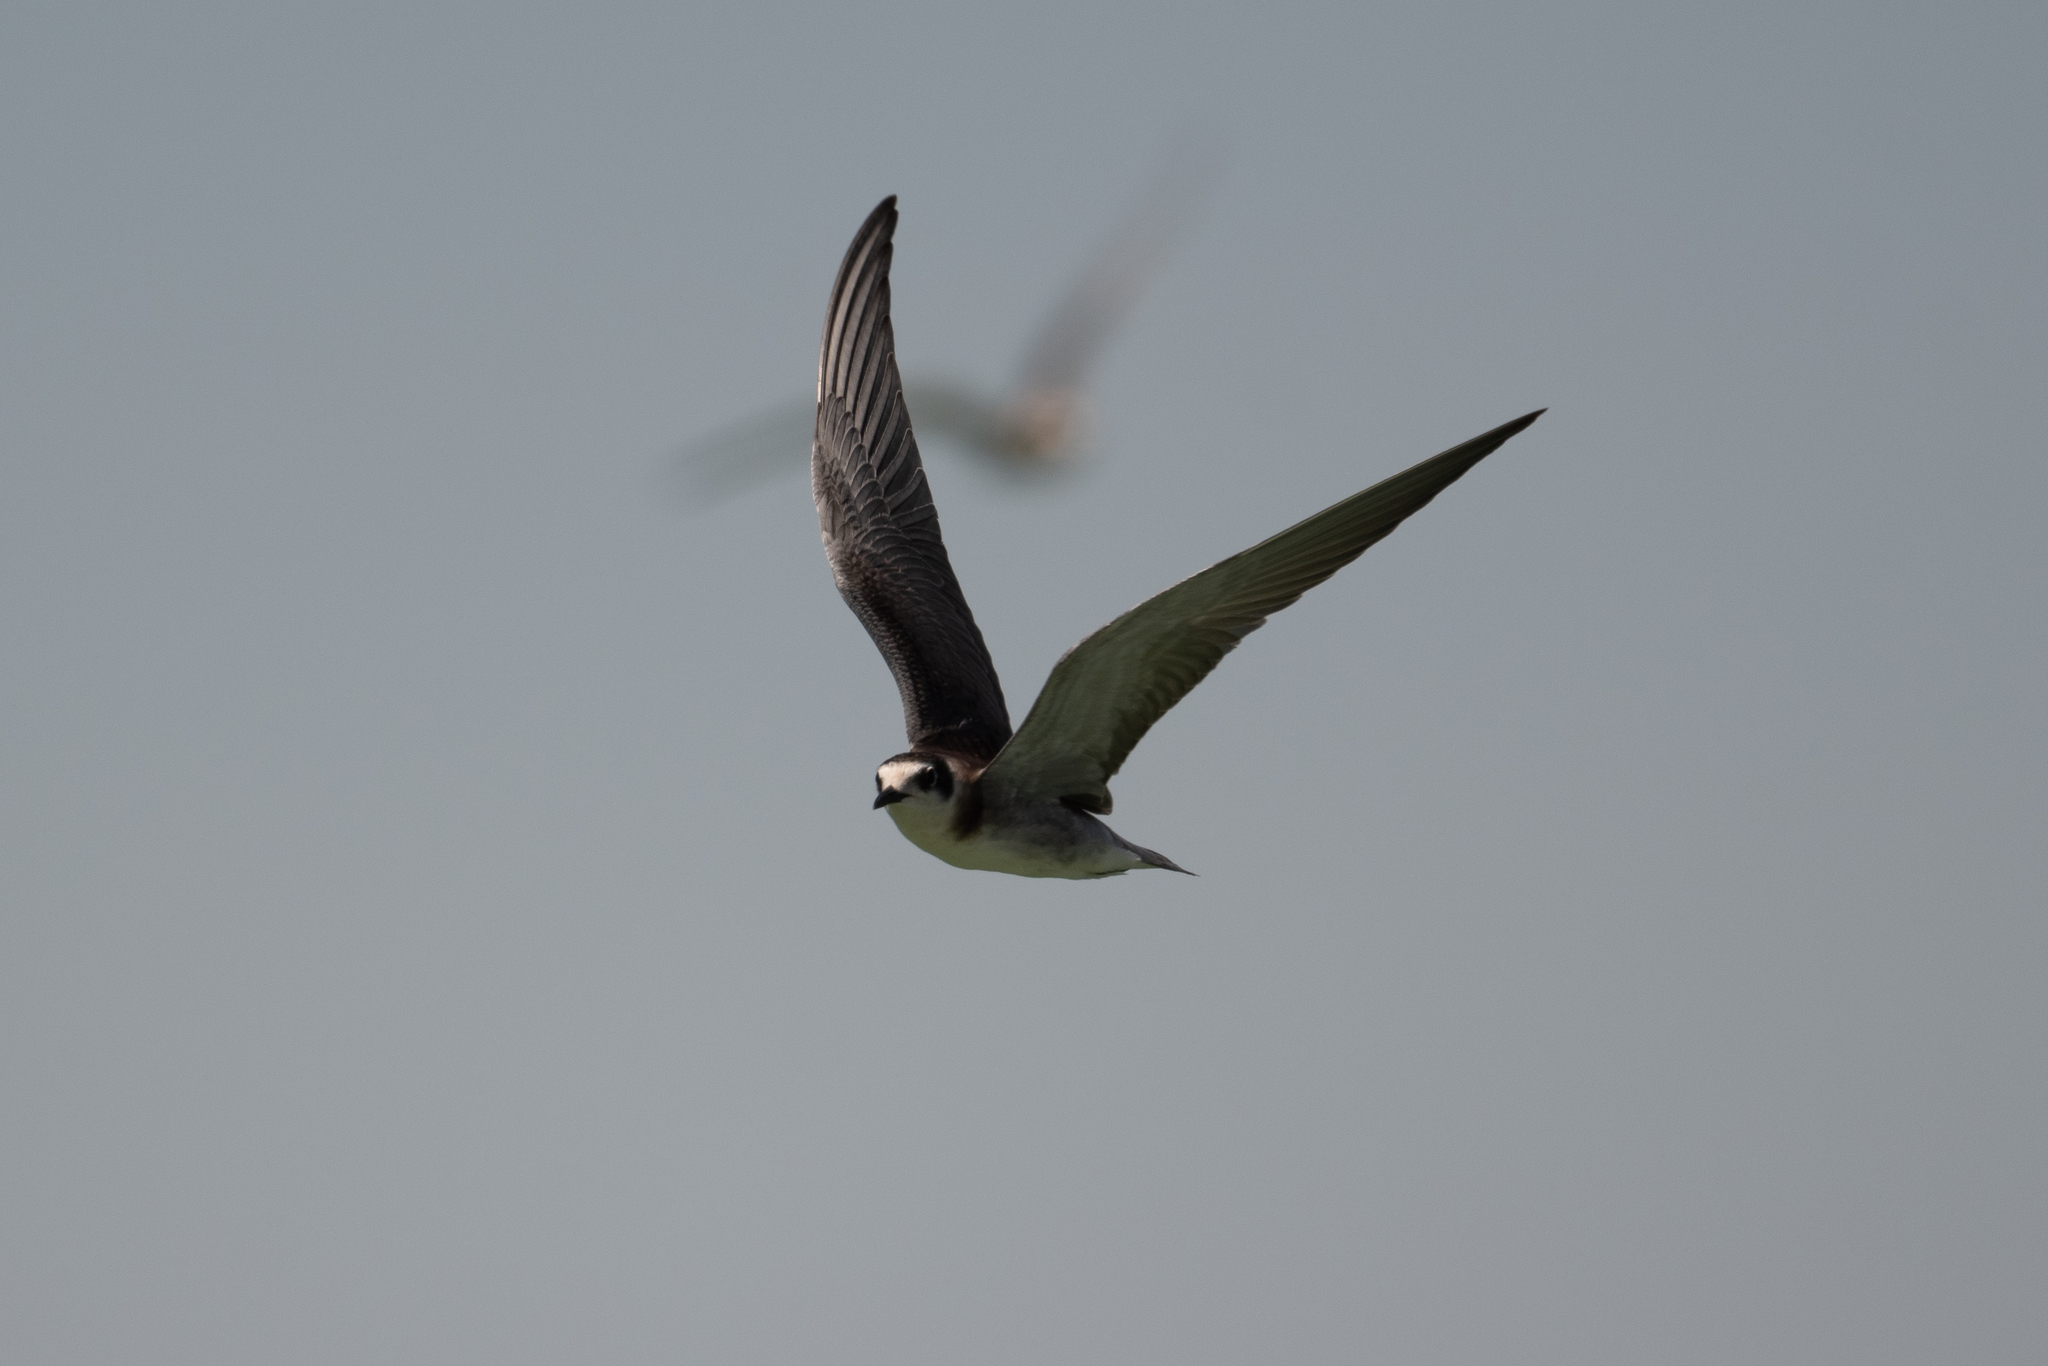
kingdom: Animalia
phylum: Chordata
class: Aves
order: Charadriiformes
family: Laridae
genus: Chlidonias
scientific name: Chlidonias niger
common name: Black tern
